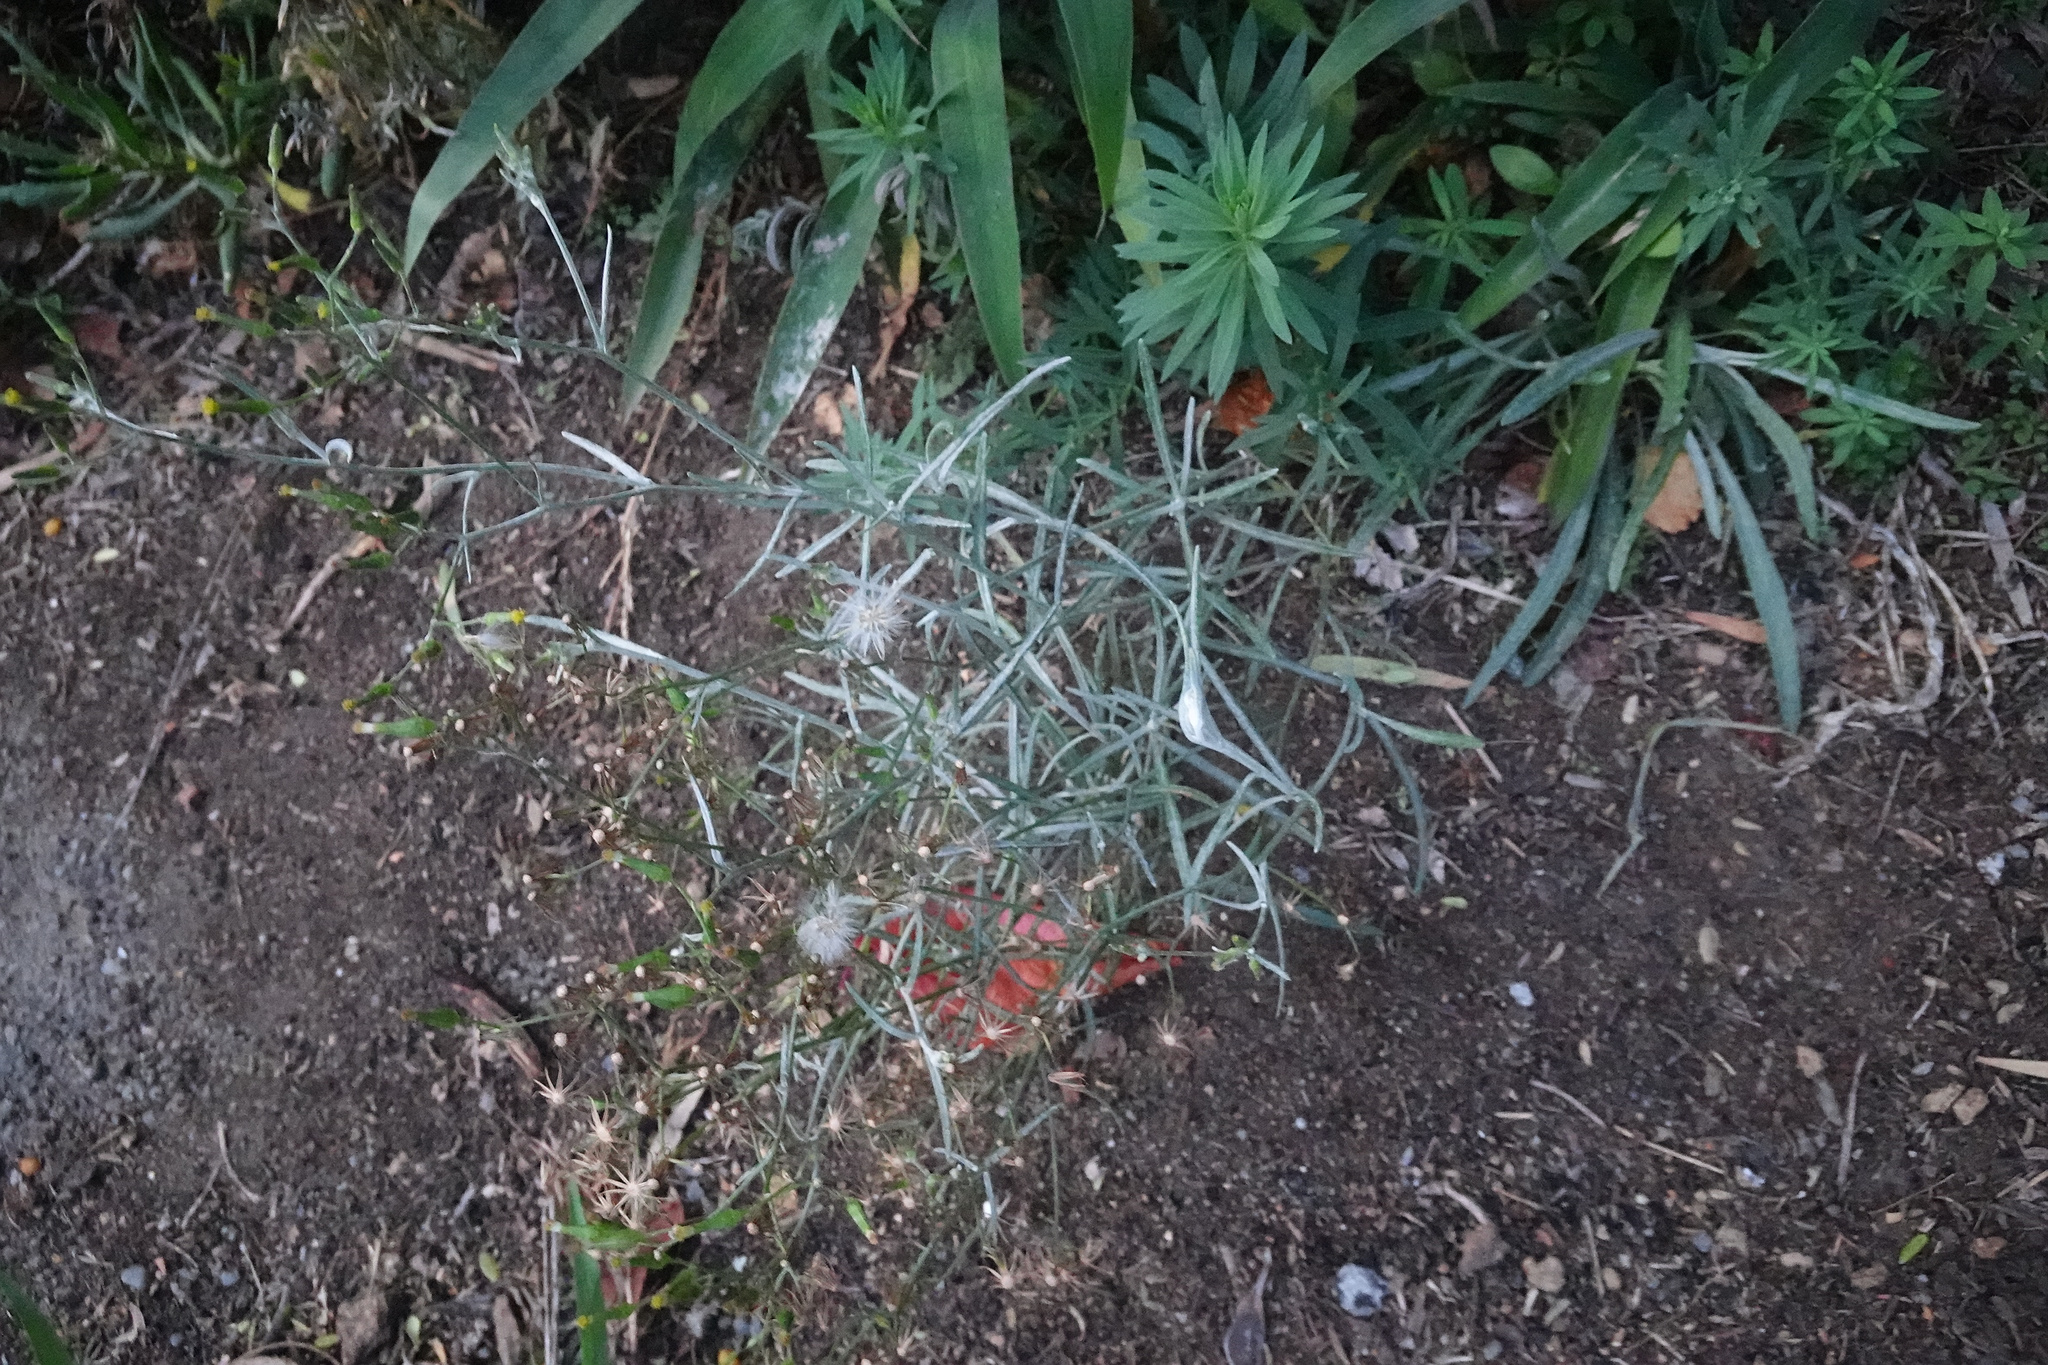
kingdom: Plantae
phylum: Tracheophyta
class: Magnoliopsida
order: Asterales
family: Asteraceae
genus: Senecio
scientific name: Senecio quadridentatus
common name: Cotton fireweed
